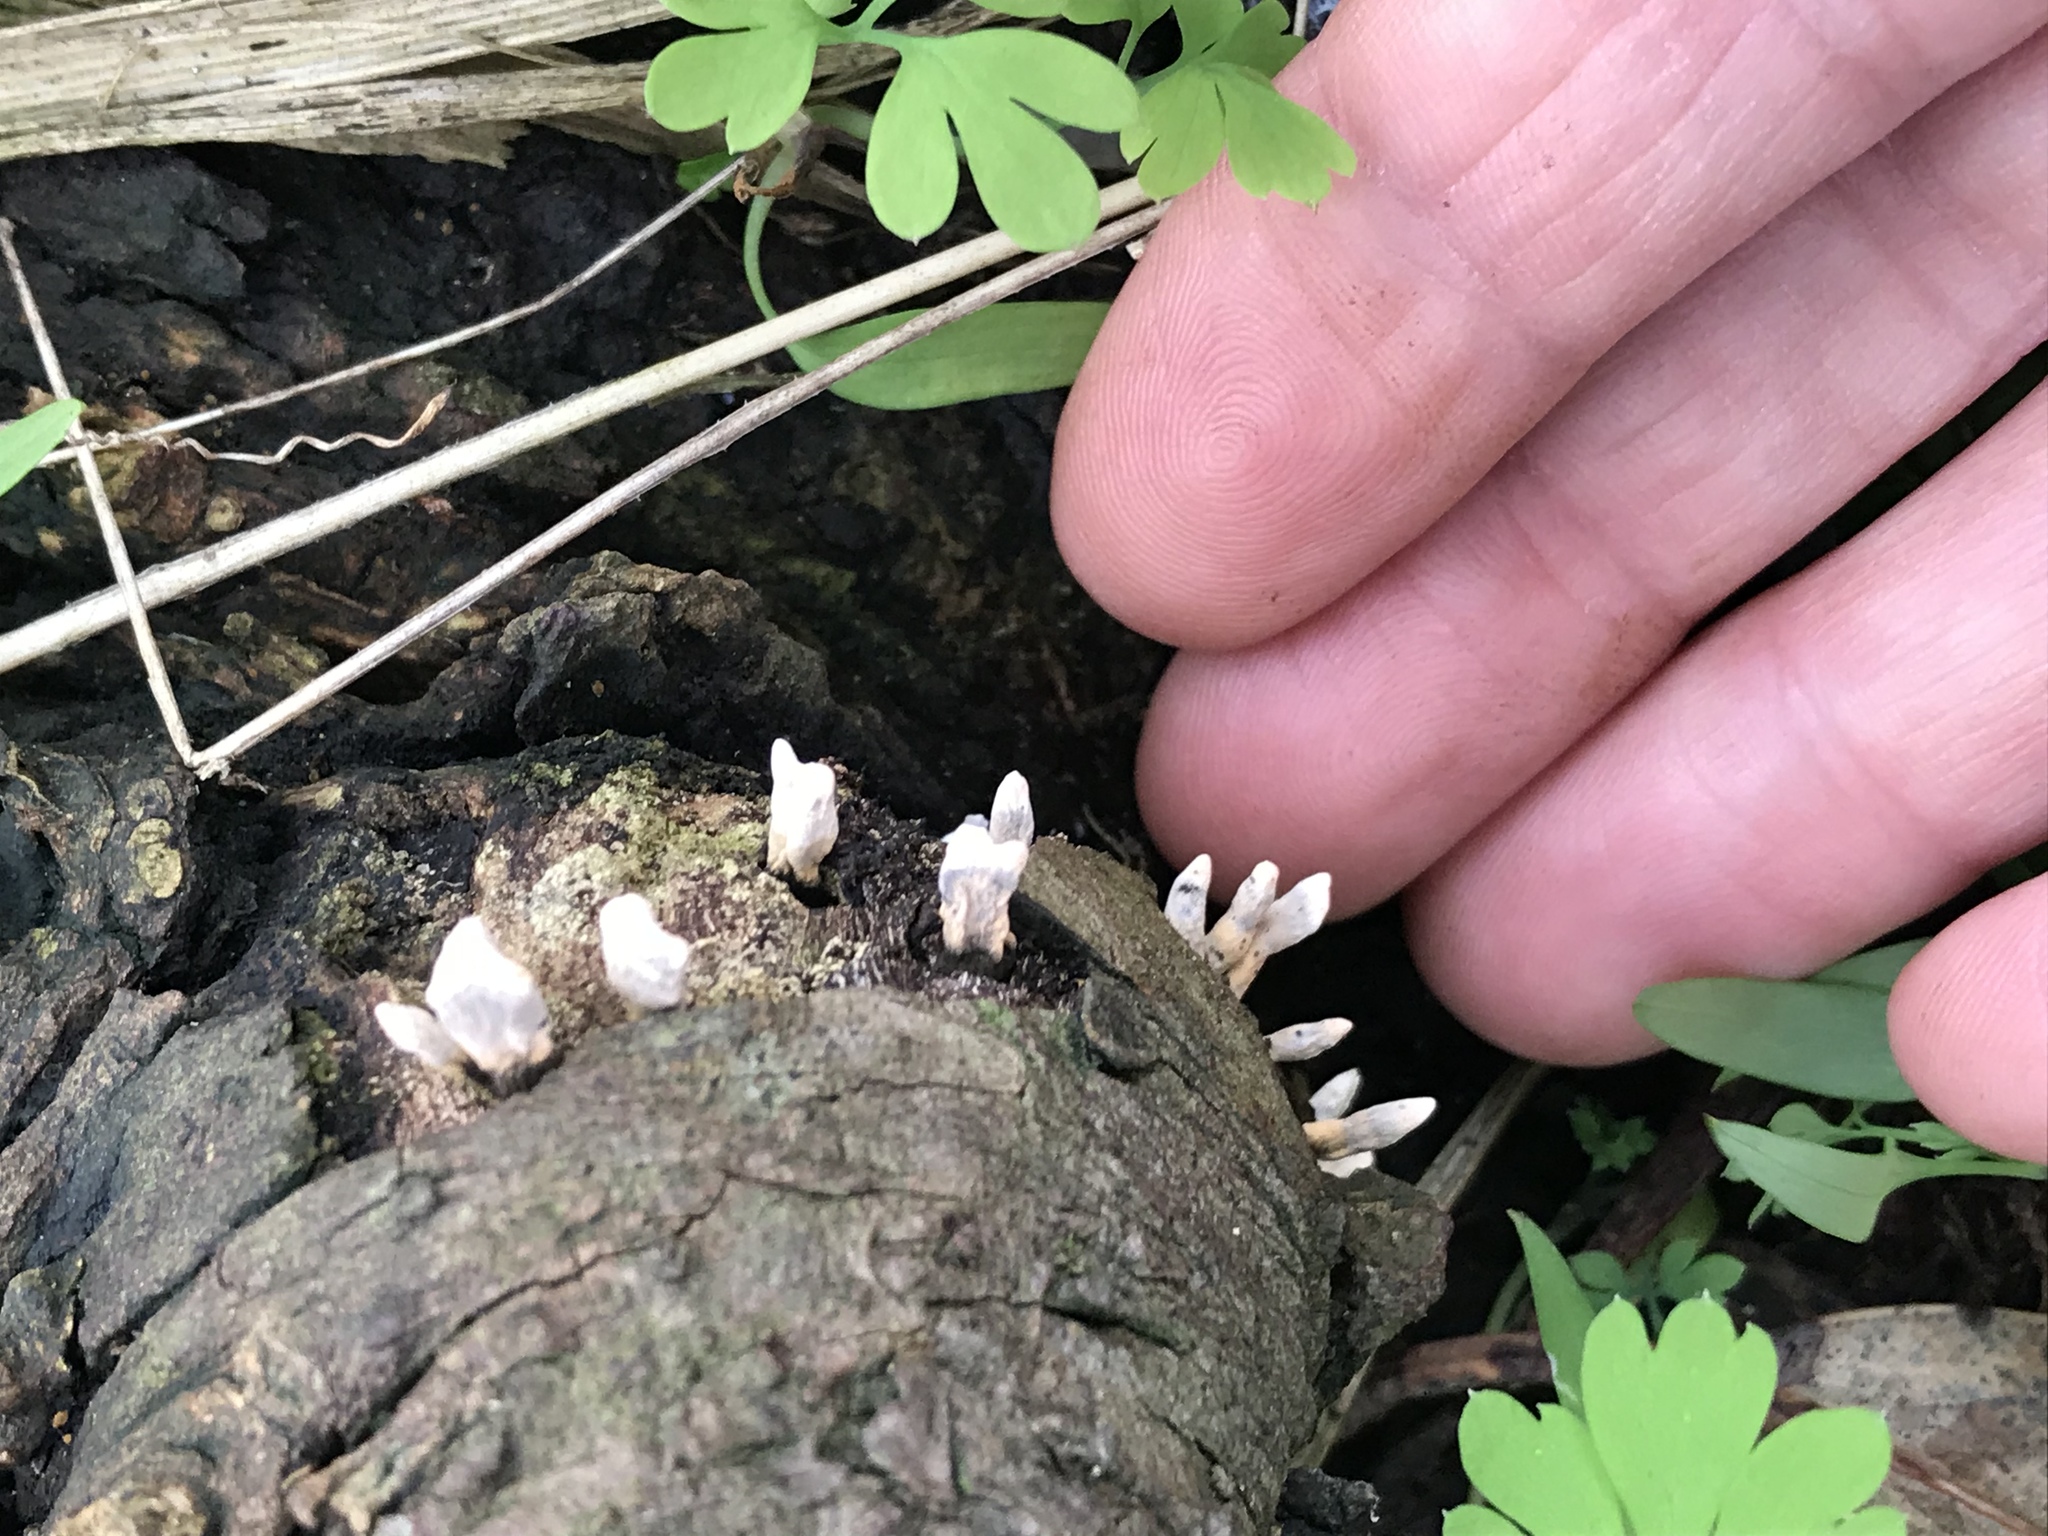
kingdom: Fungi
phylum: Ascomycota
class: Sordariomycetes
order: Xylariales
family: Xylariaceae
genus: Xylaria
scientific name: Xylaria hypoxylon
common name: Candle-snuff fungus
